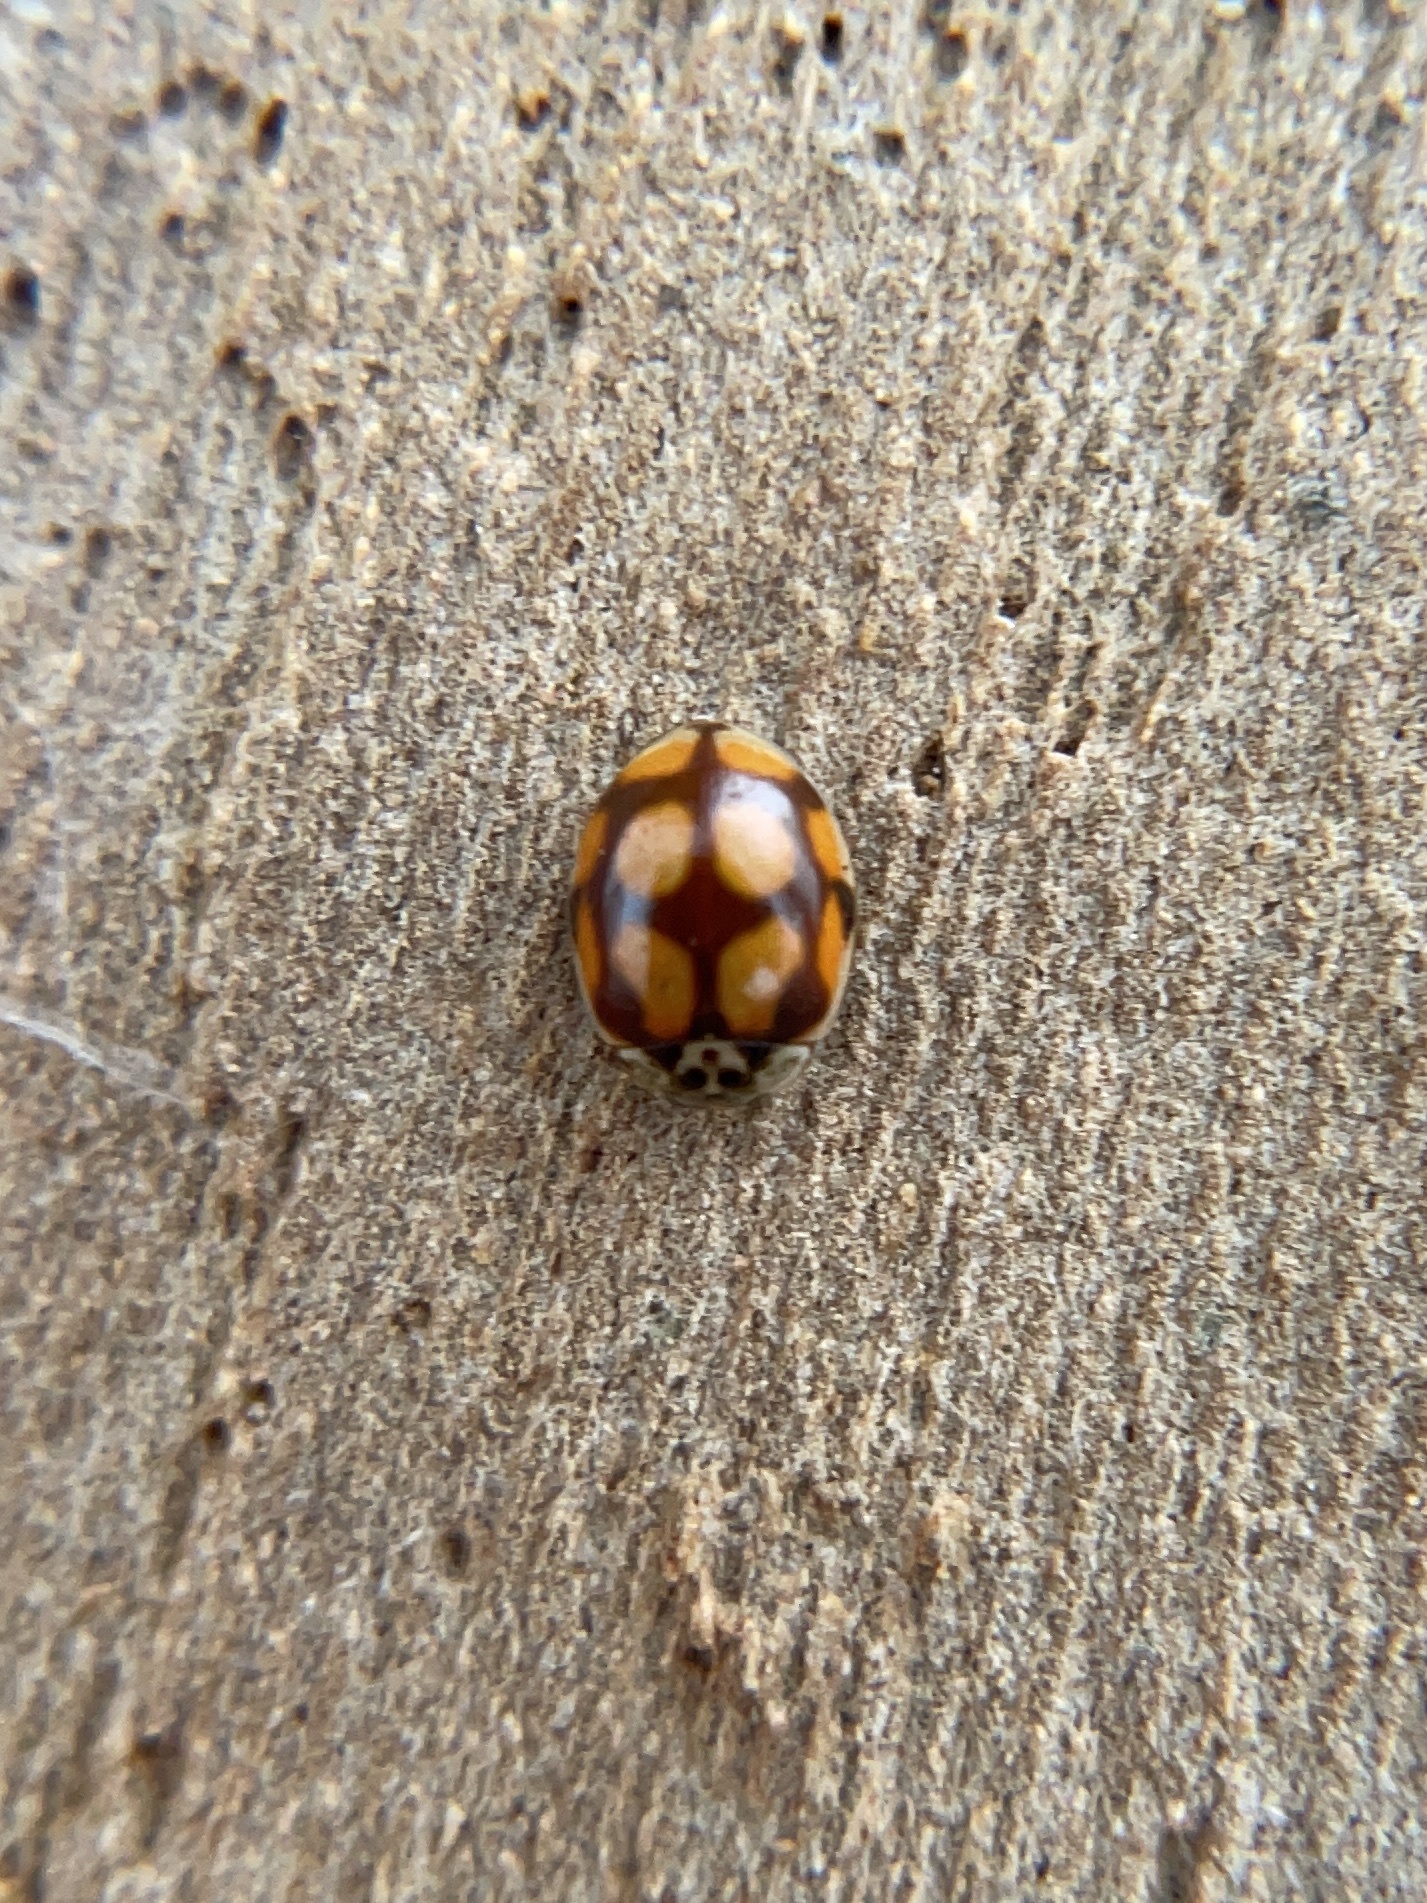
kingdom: Animalia
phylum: Arthropoda
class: Insecta
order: Coleoptera
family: Coccinellidae
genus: Adalia
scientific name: Adalia decempunctata
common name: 10-spot ladybird
